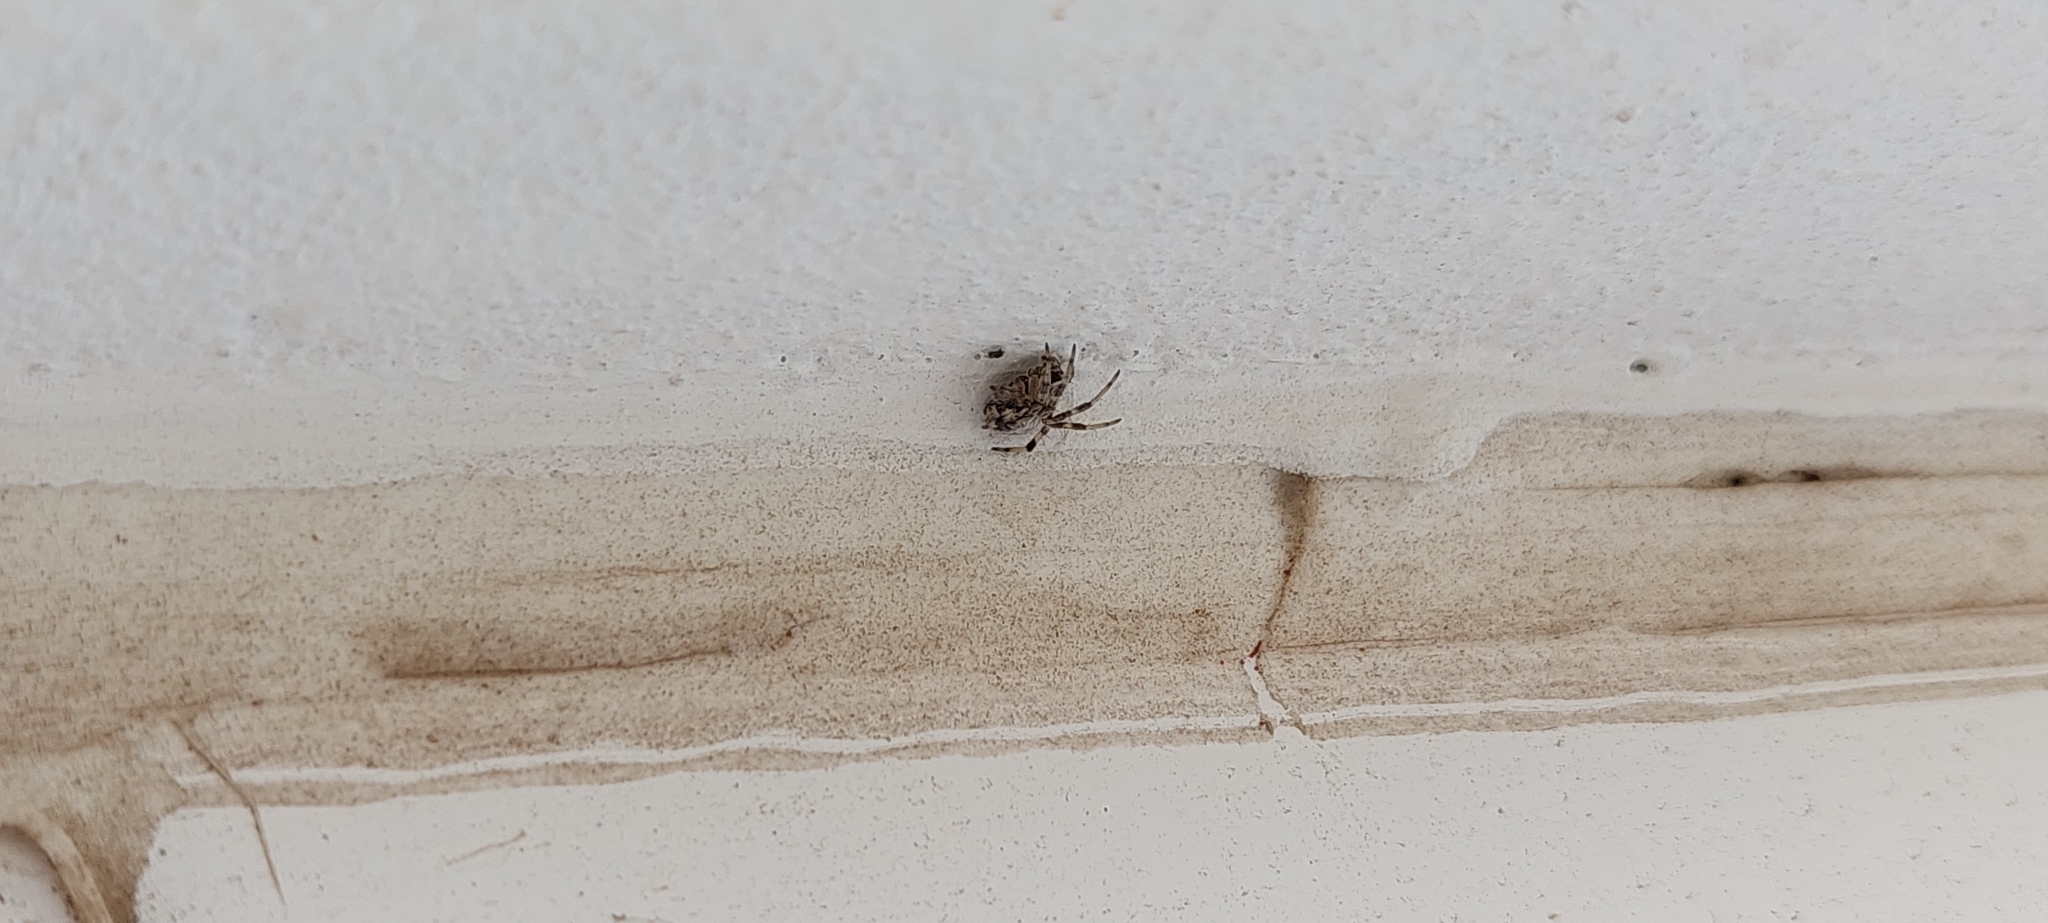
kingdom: Animalia
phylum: Arthropoda
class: Arachnida
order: Araneae
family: Araneidae
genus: Metepeira
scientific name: Metepeira
